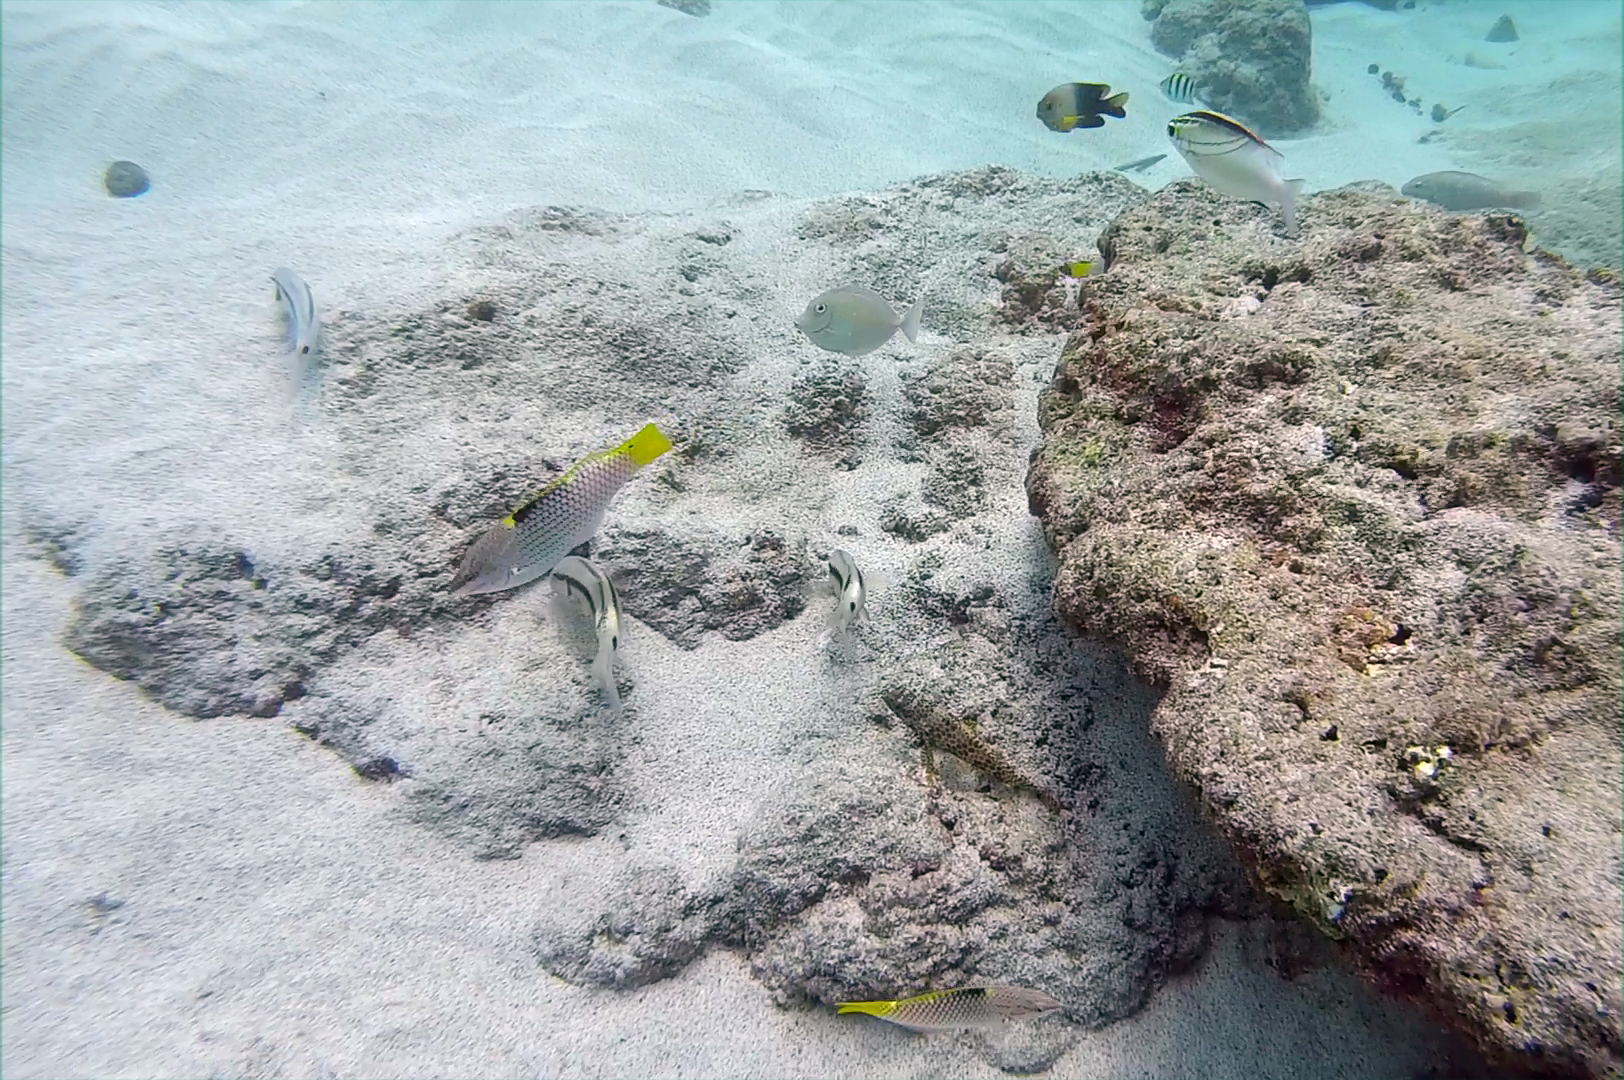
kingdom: Animalia
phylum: Chordata
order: Perciformes
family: Serranidae
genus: Epinephelus
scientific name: Epinephelus merra
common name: Honeycomb grouper
